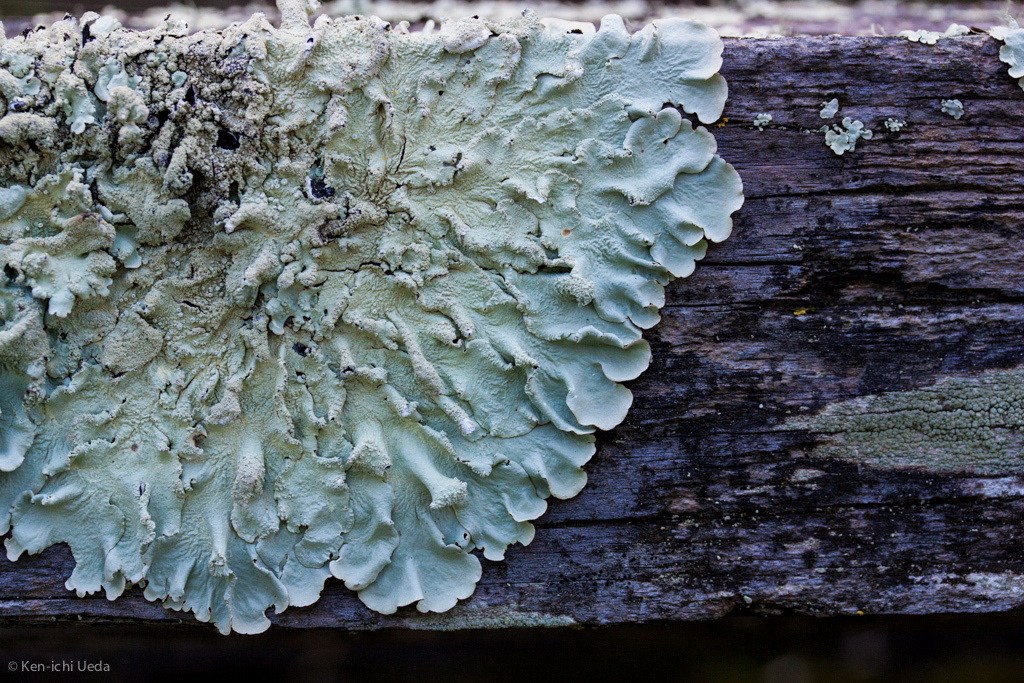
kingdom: Fungi
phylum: Ascomycota
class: Lecanoromycetes
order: Lecanorales
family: Parmeliaceae
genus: Flavoparmelia
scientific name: Flavoparmelia caperata
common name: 40-mile per hour lichen
